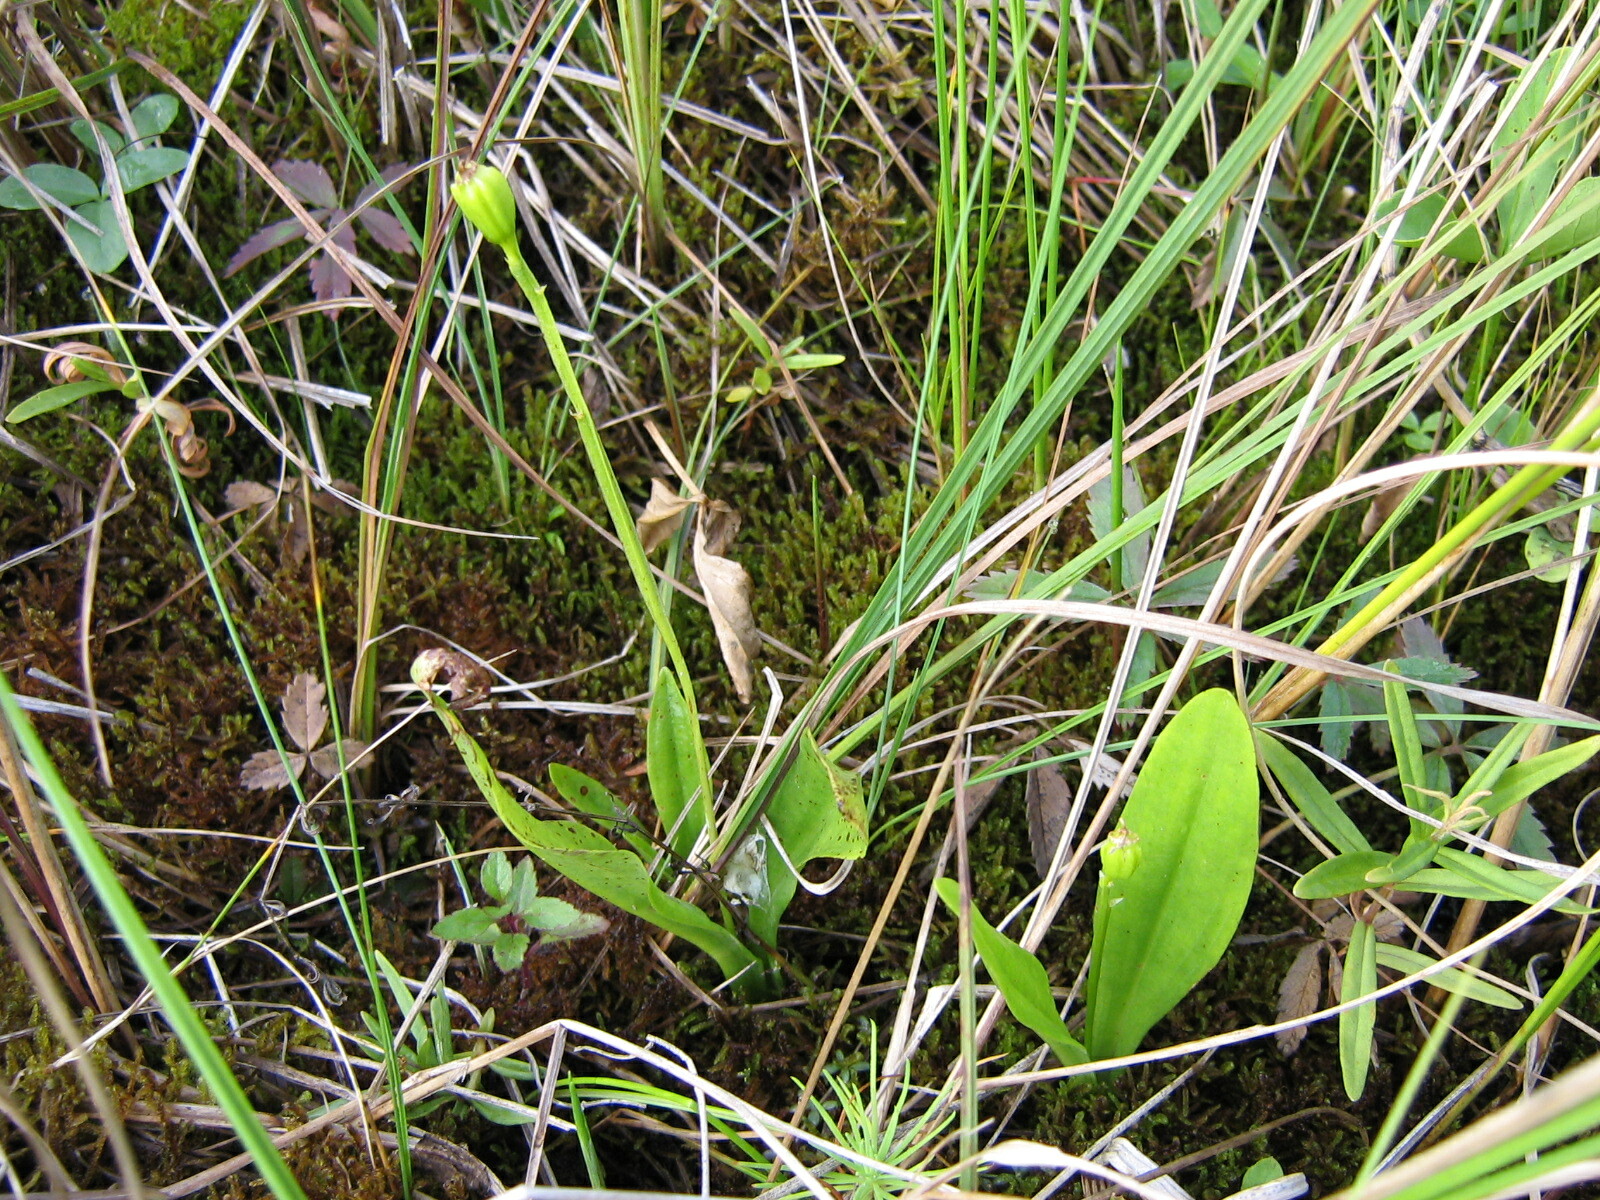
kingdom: Animalia
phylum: Arthropoda
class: Insecta
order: Coleoptera
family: Curculionidae
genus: Liparis
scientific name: Liparis loeselii
